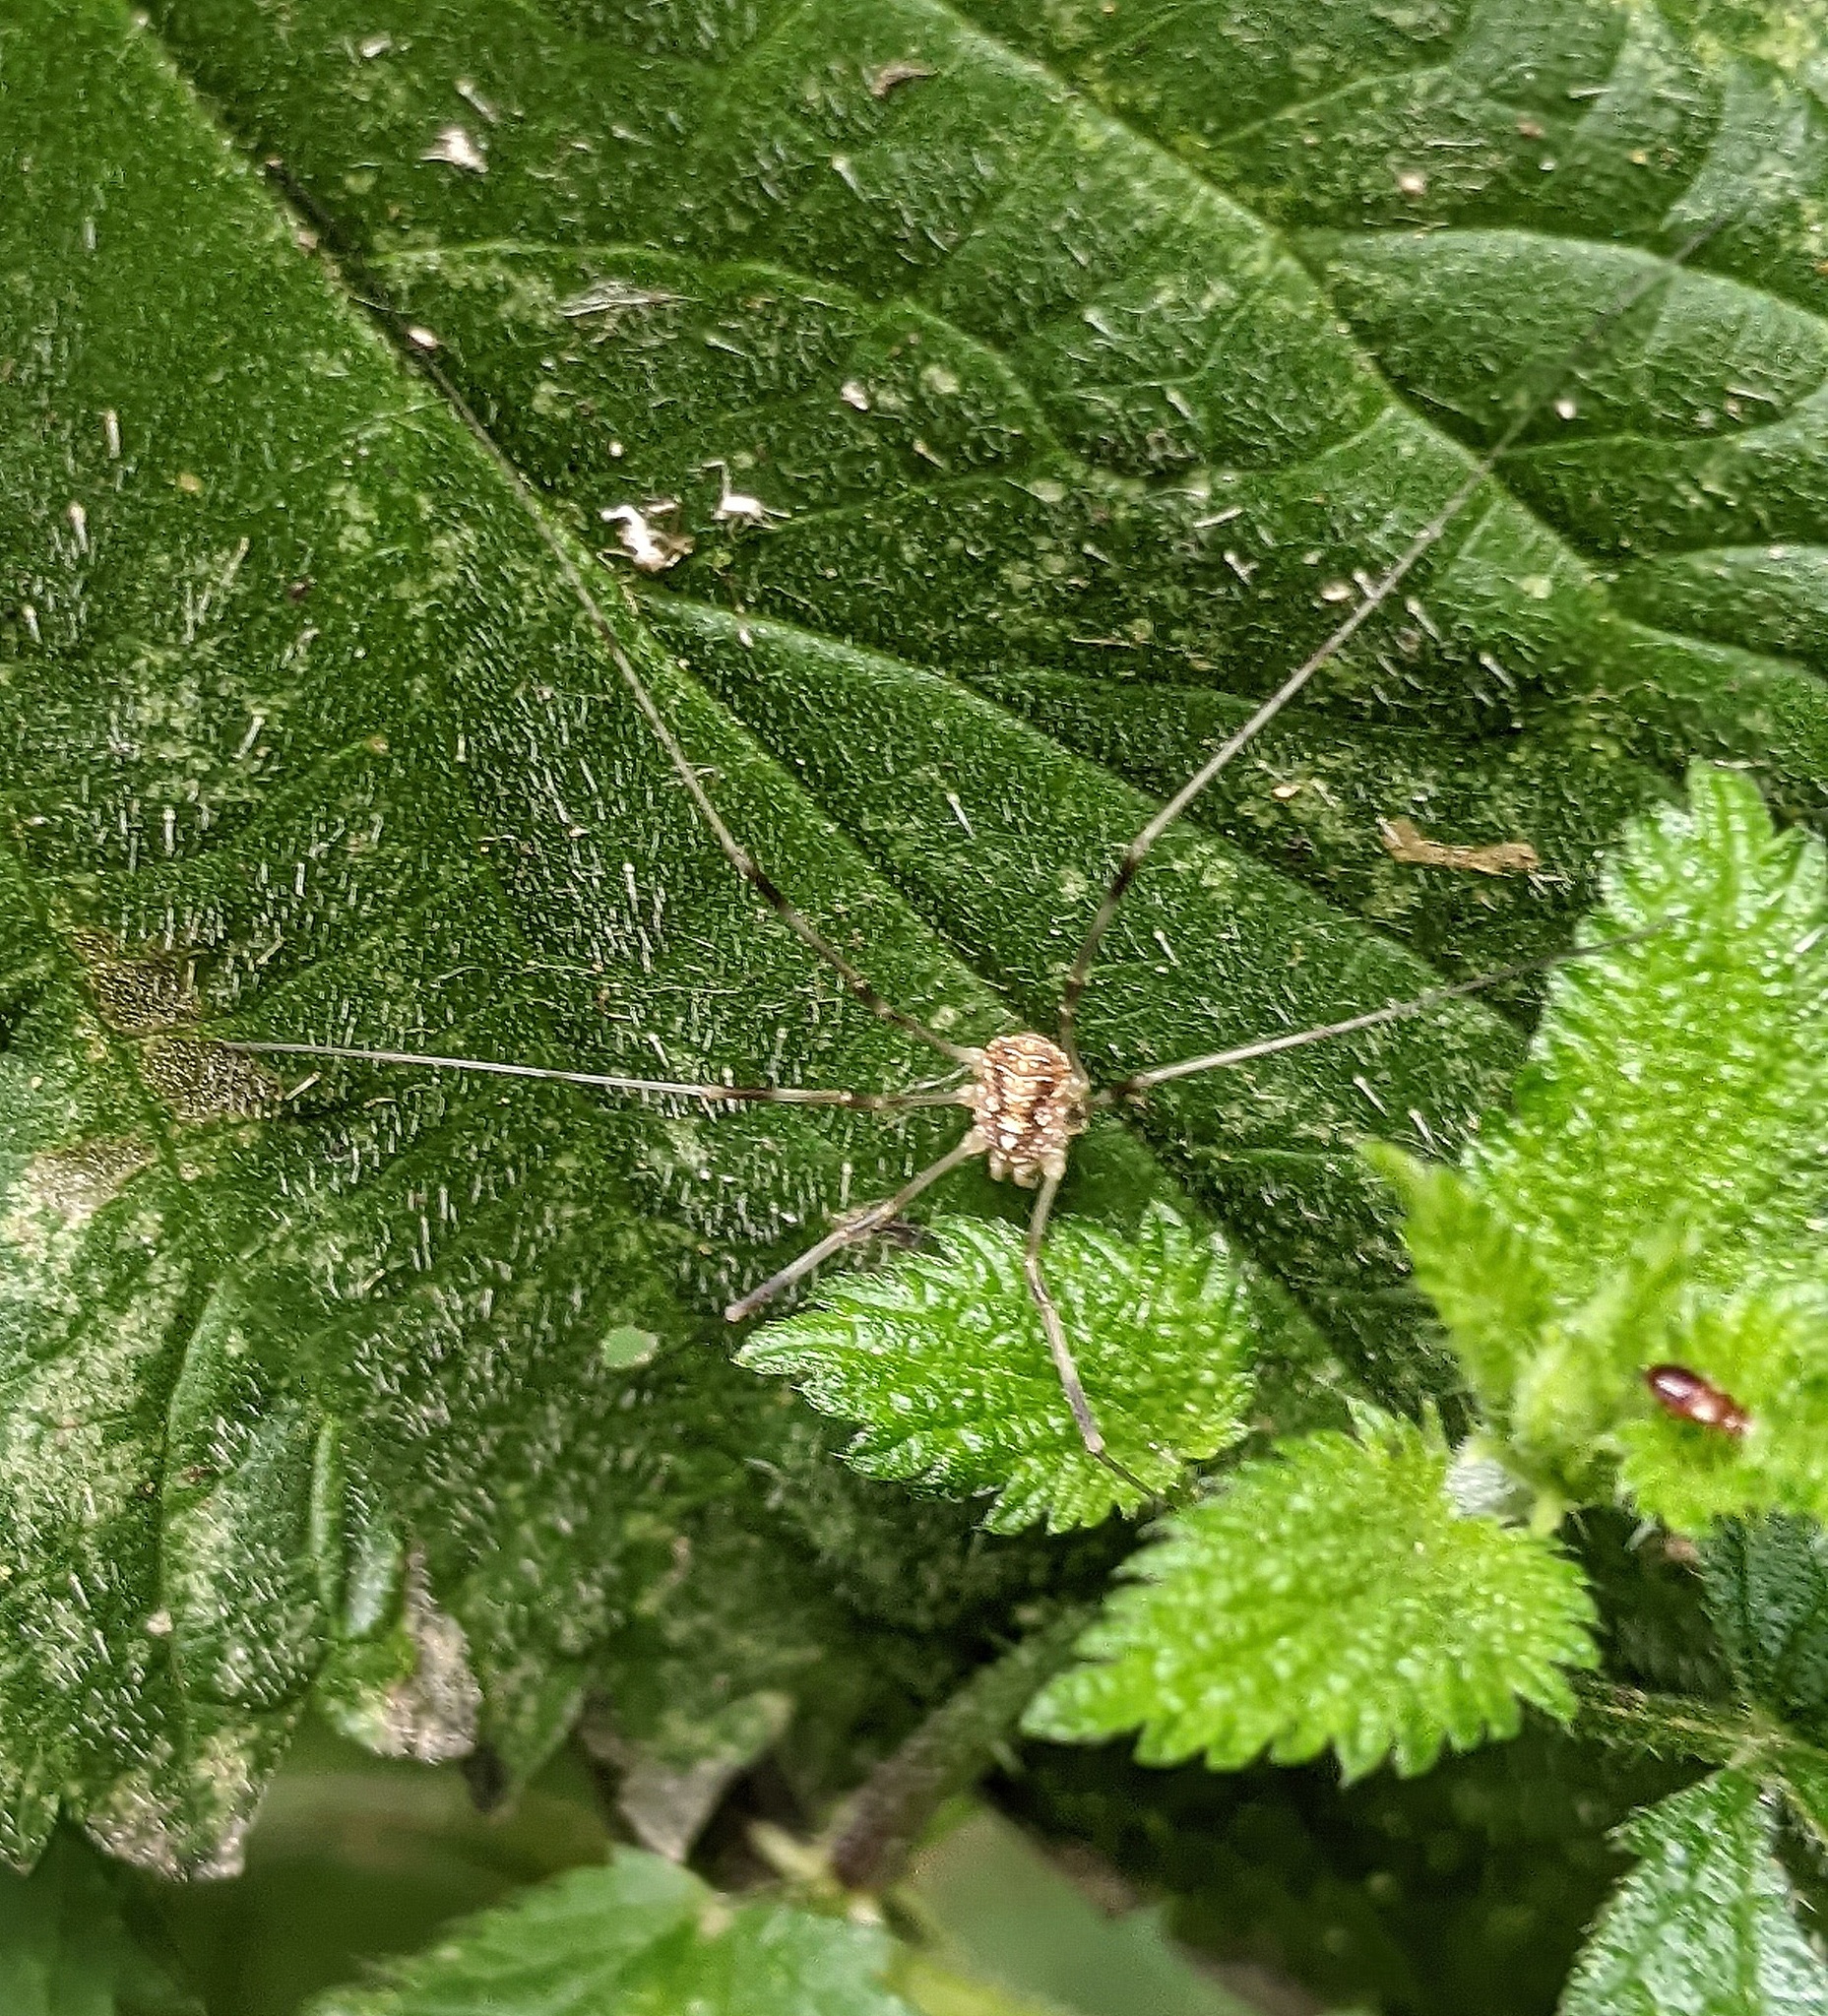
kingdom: Animalia
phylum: Arthropoda
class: Arachnida
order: Opiliones
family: Phalangiidae
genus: Opilio
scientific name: Opilio canestrinii
